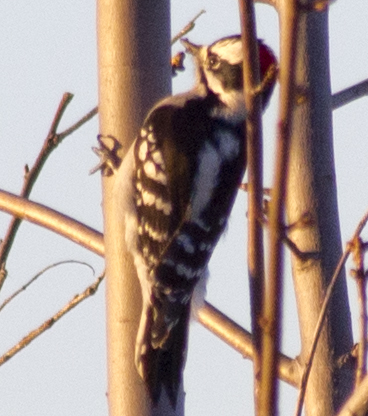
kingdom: Animalia
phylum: Chordata
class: Aves
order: Piciformes
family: Picidae
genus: Dryobates
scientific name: Dryobates pubescens
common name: Downy woodpecker
